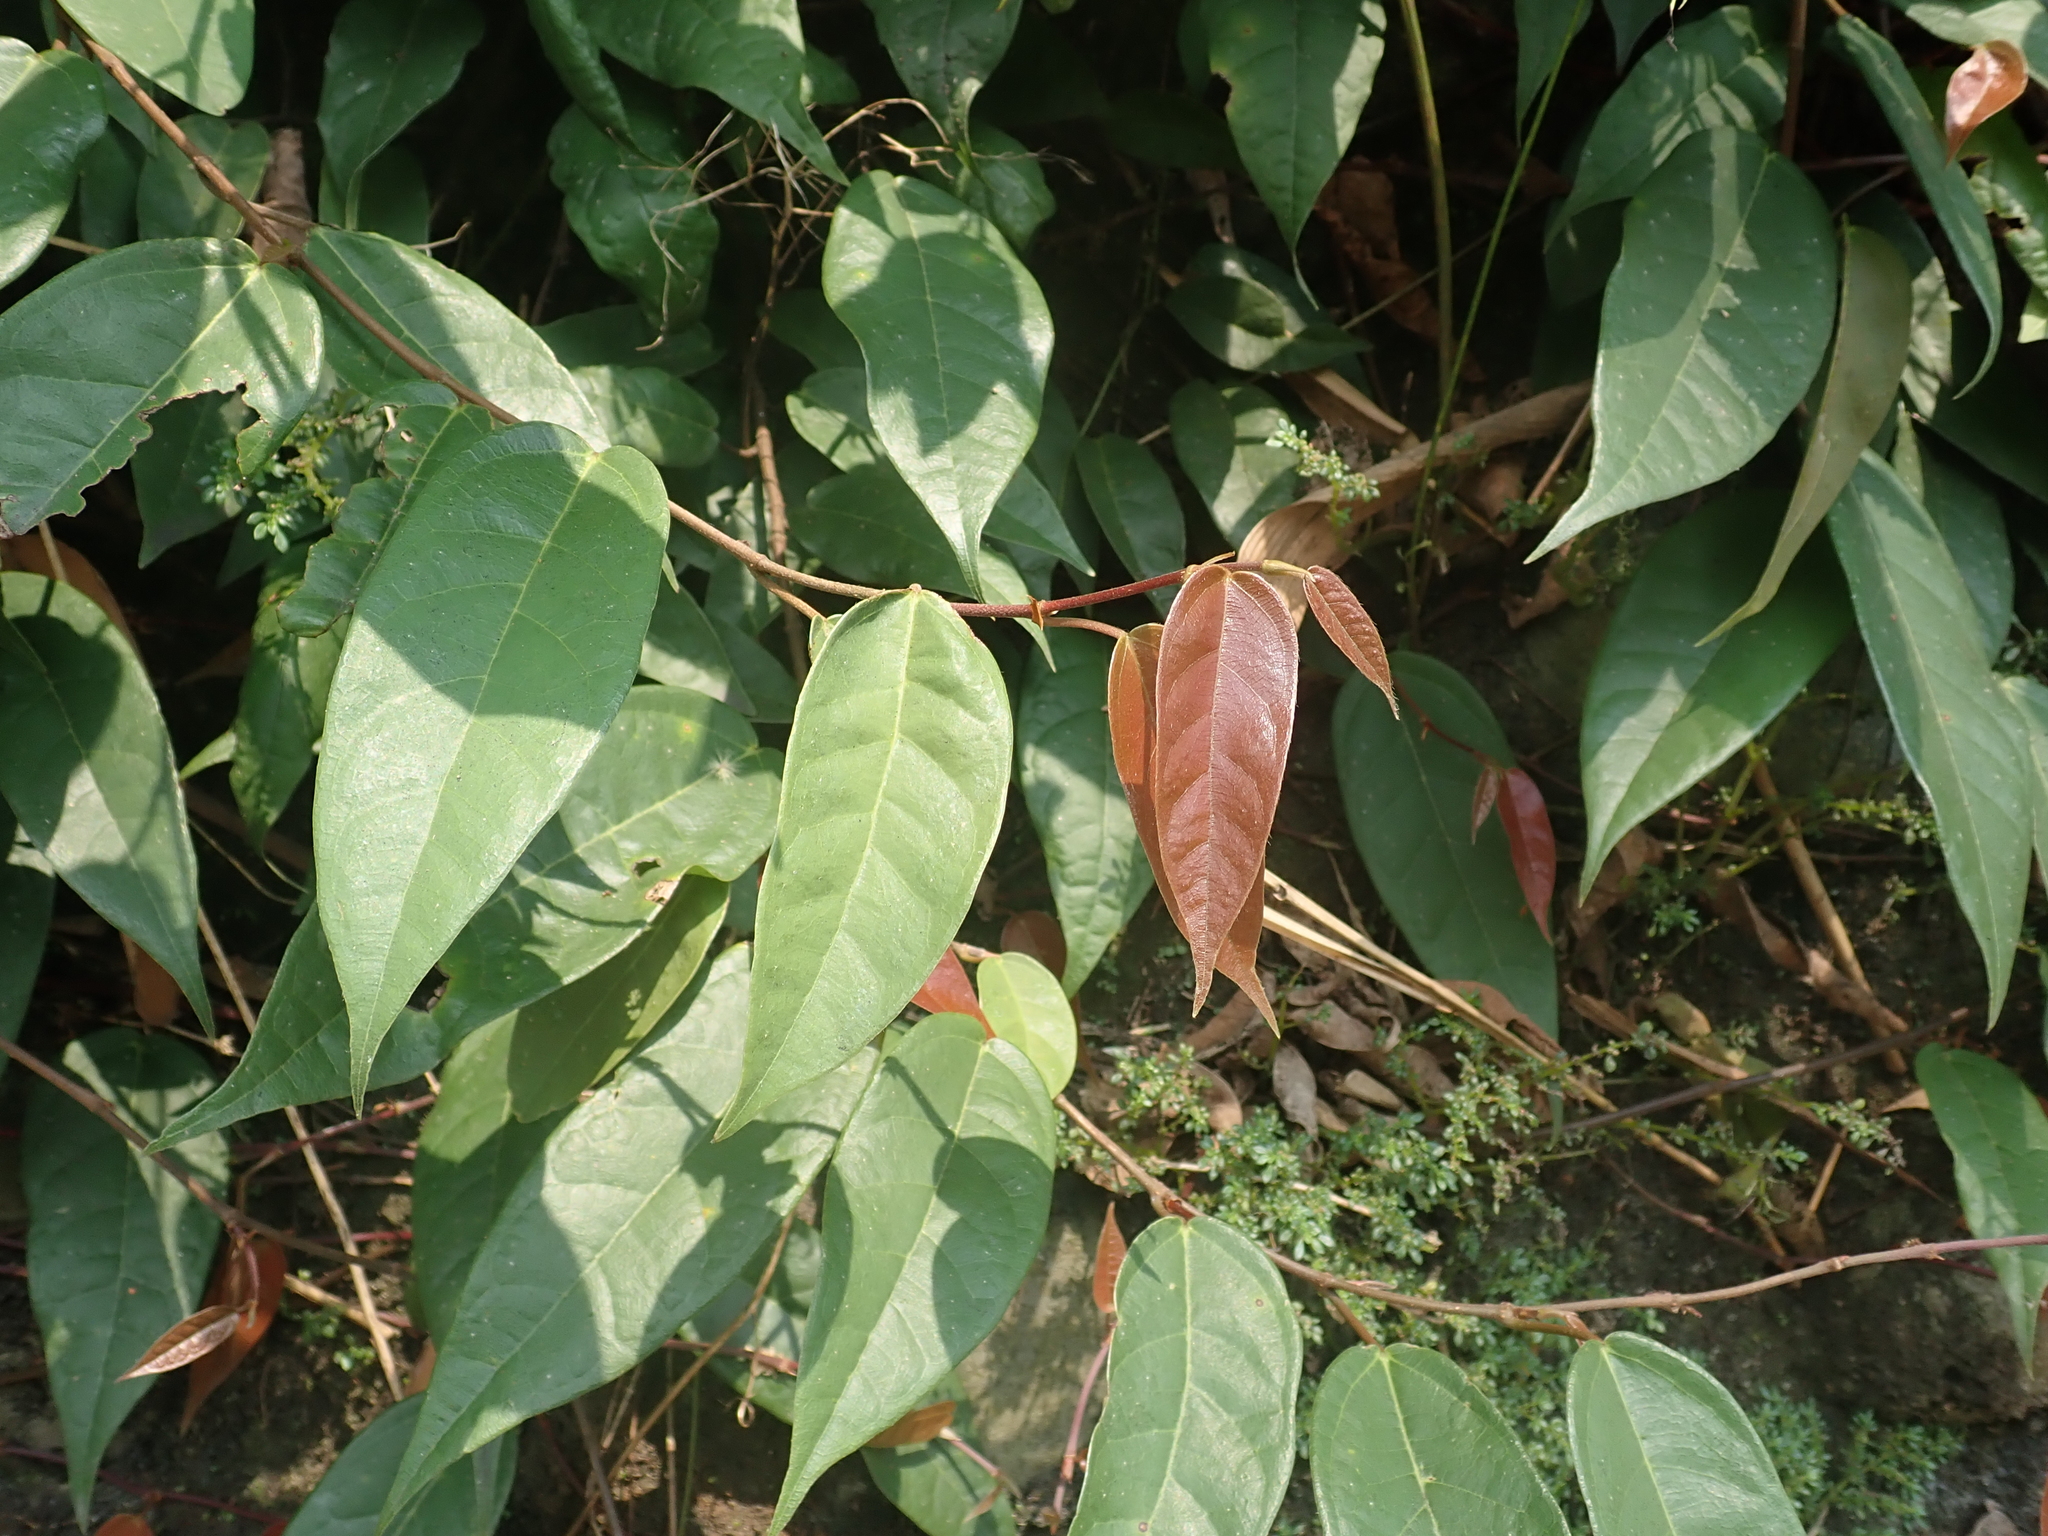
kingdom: Plantae
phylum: Tracheophyta
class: Magnoliopsida
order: Rosales
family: Moraceae
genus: Ficus
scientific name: Ficus sarmentosa
